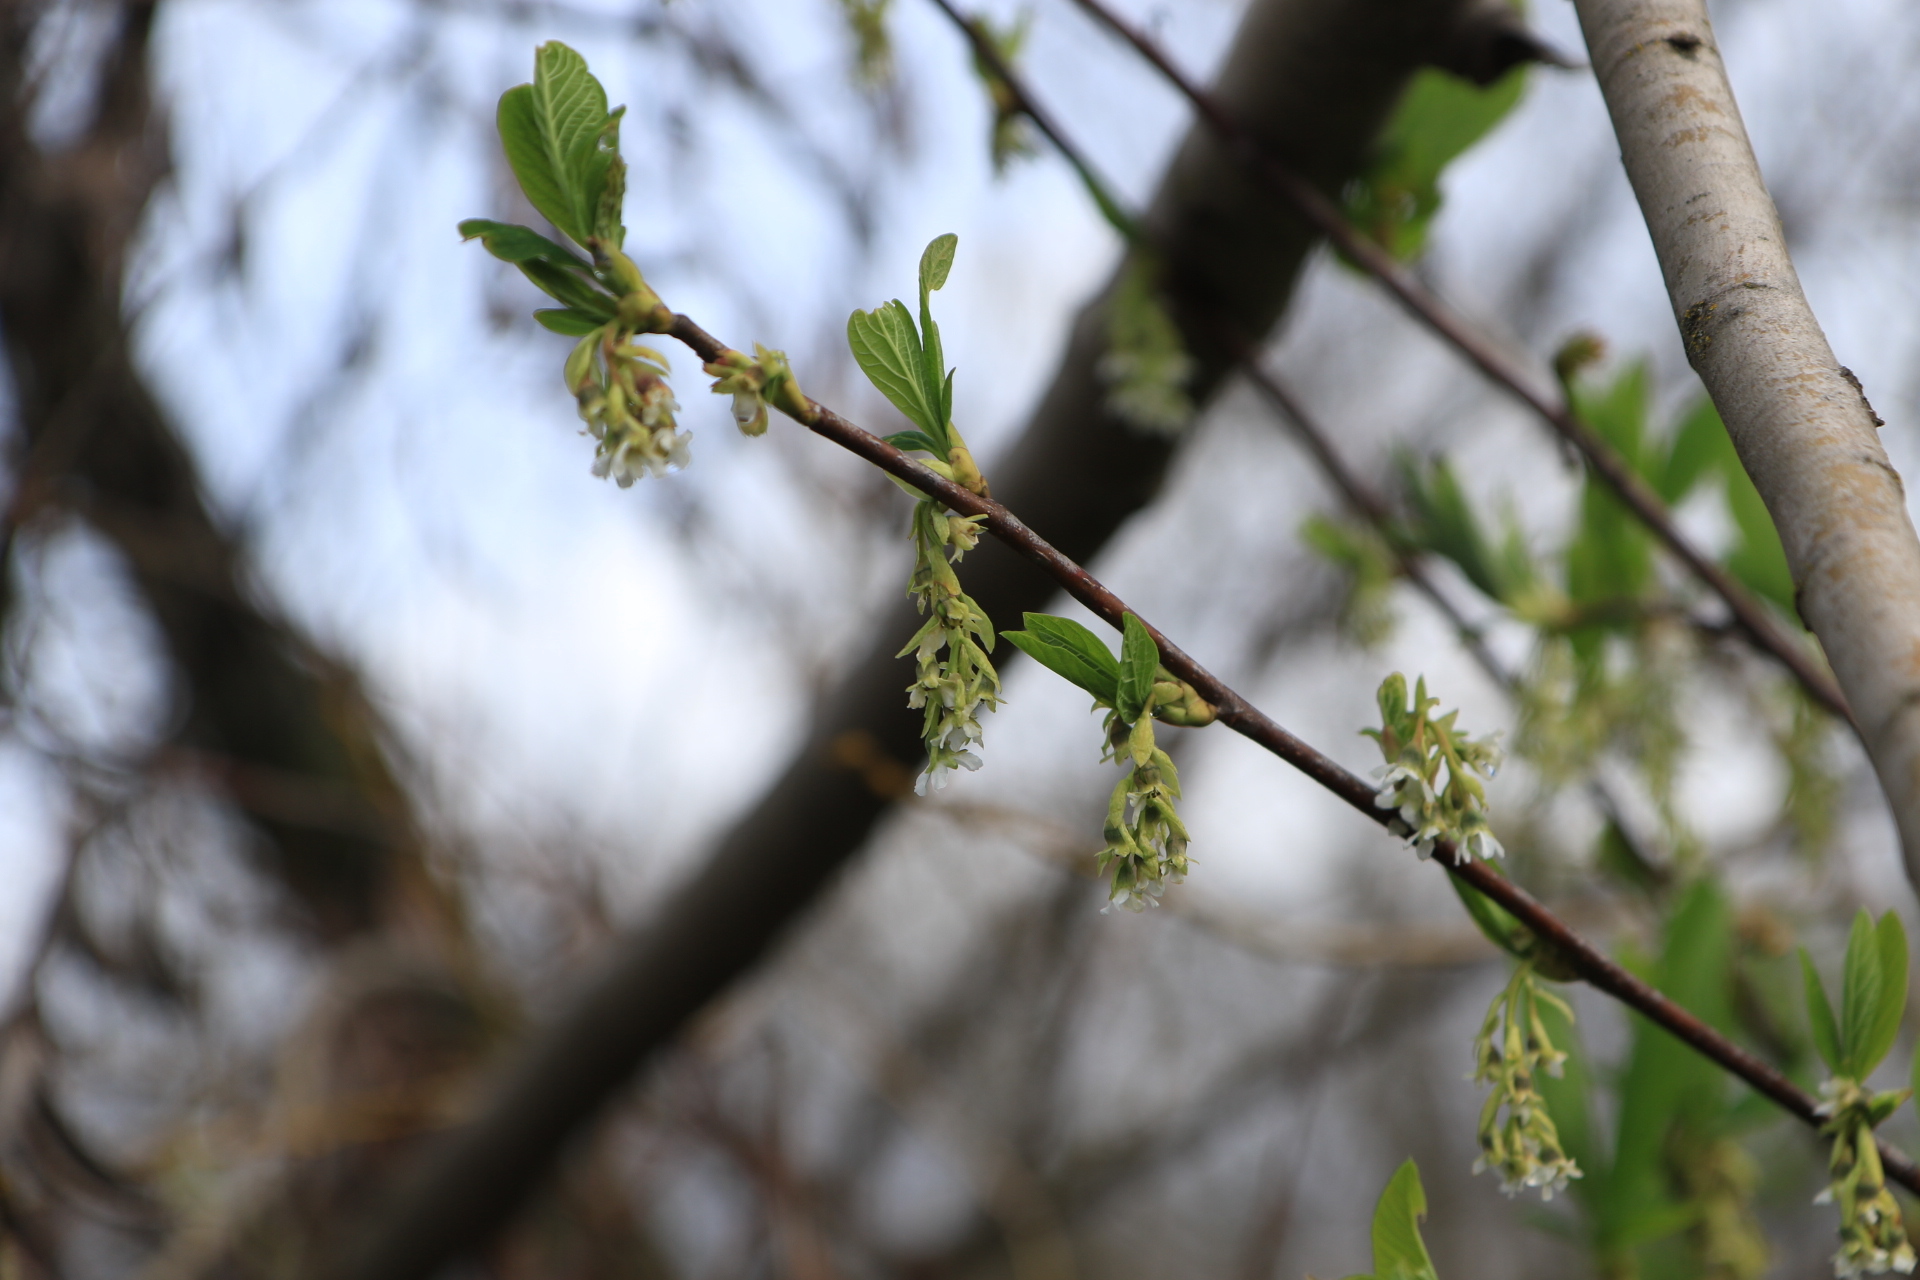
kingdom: Plantae
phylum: Tracheophyta
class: Magnoliopsida
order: Rosales
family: Rosaceae
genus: Oemleria
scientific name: Oemleria cerasiformis
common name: Osoberry
